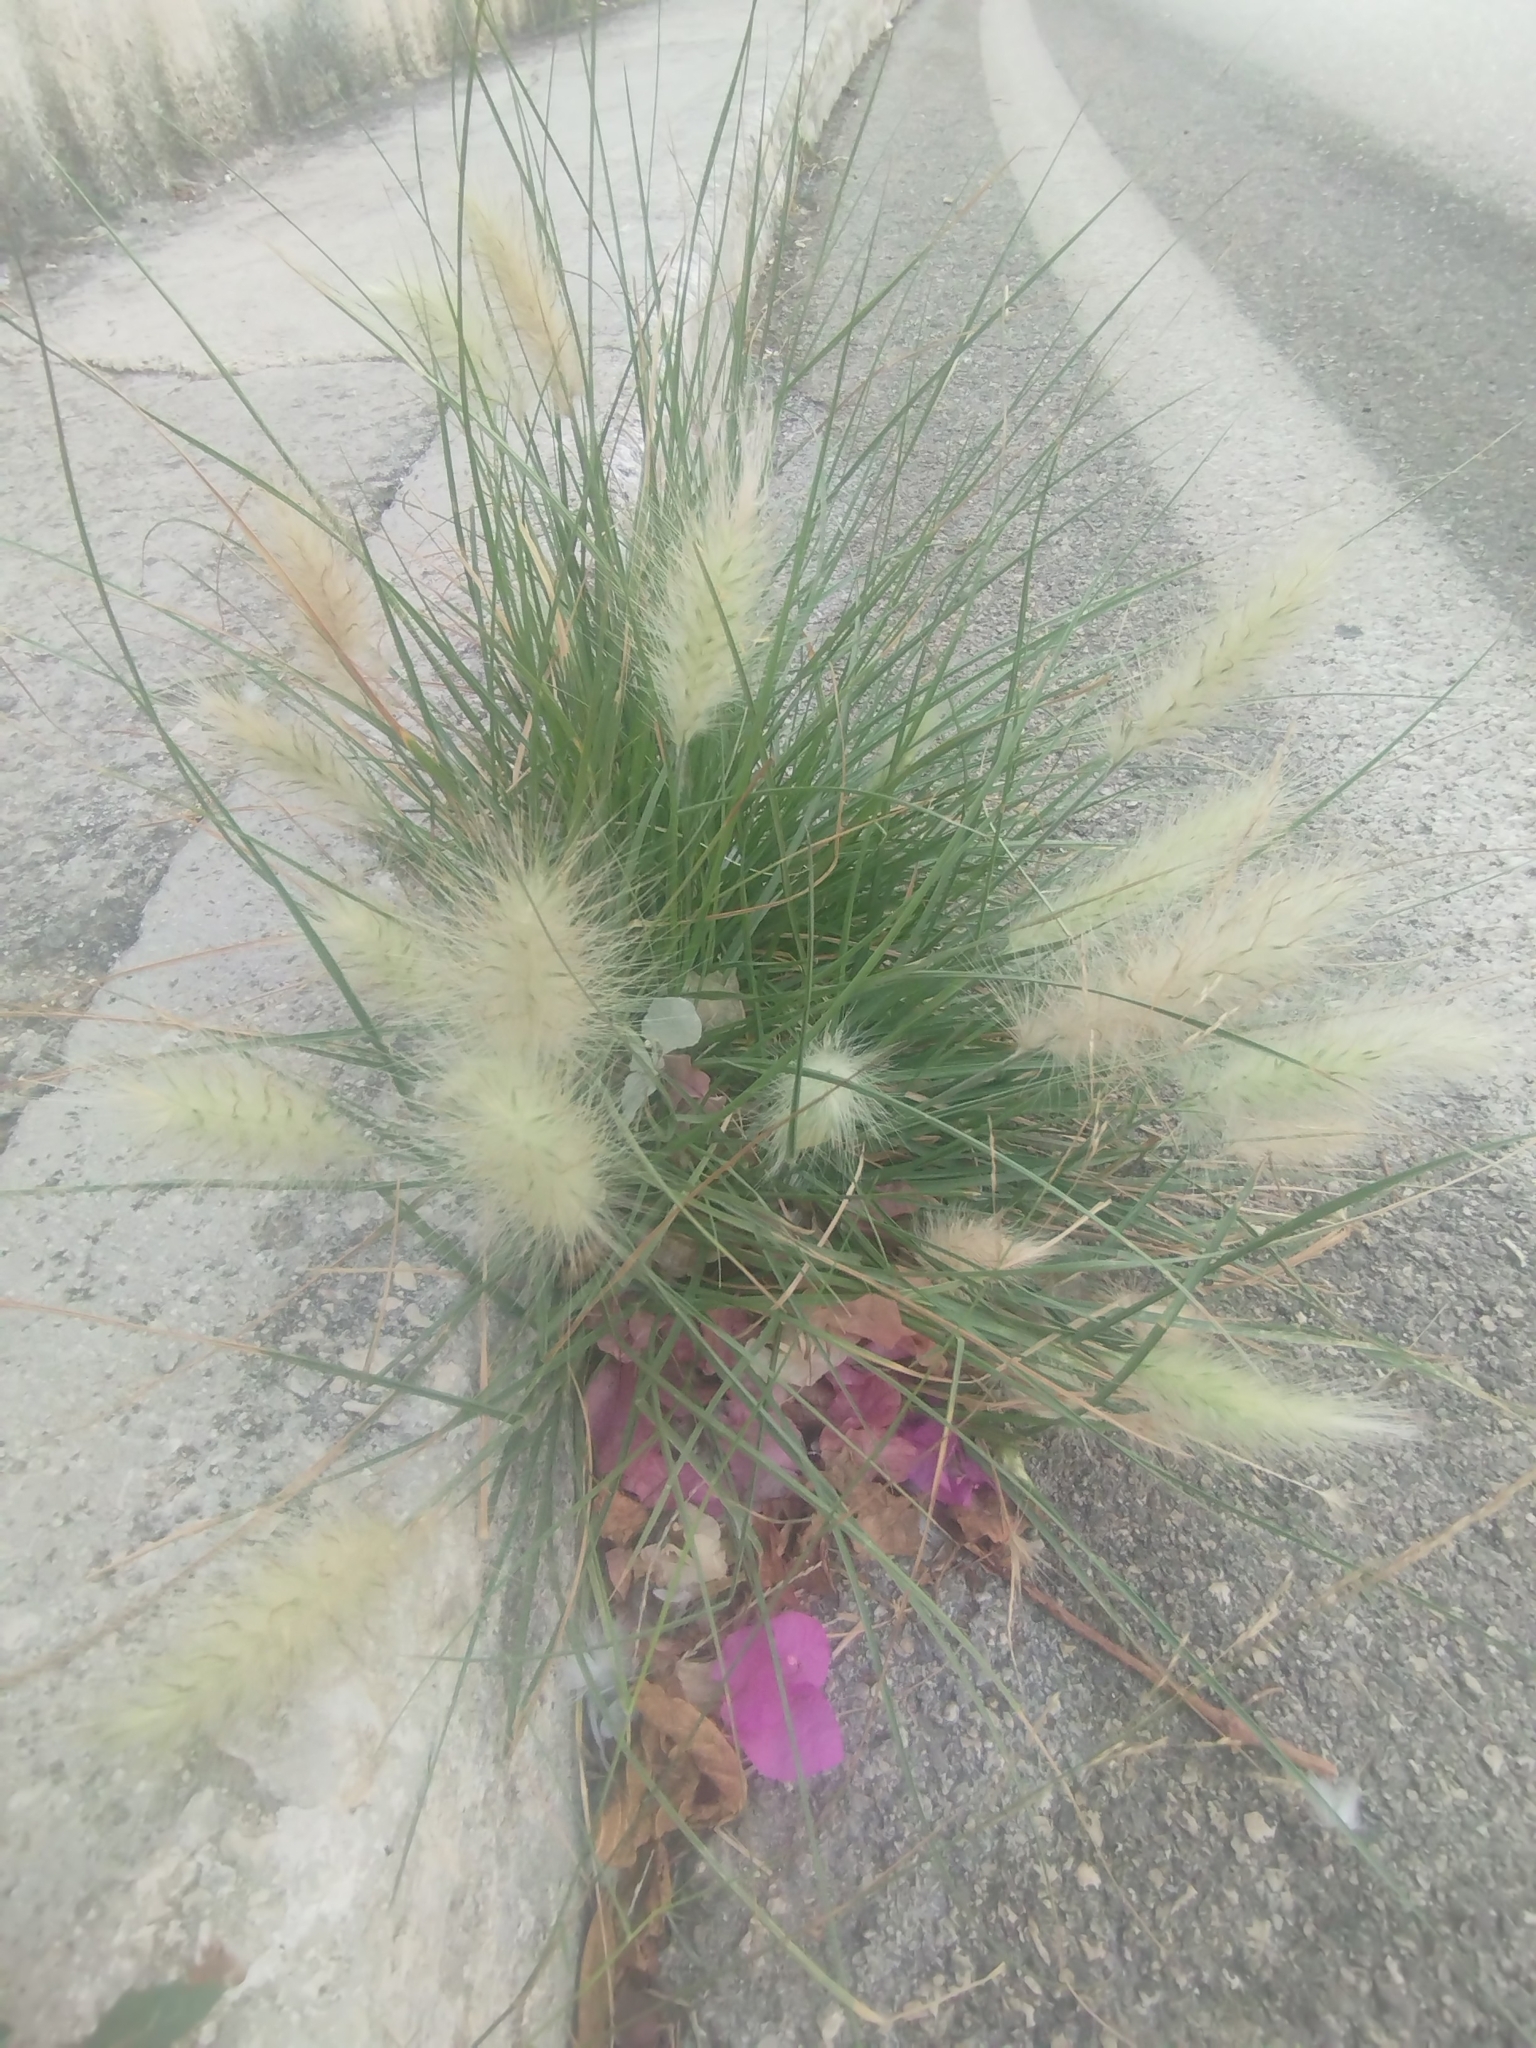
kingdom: Plantae
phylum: Tracheophyta
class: Liliopsida
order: Poales
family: Poaceae
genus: Cenchrus
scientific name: Cenchrus longisetus
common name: Feathertop
